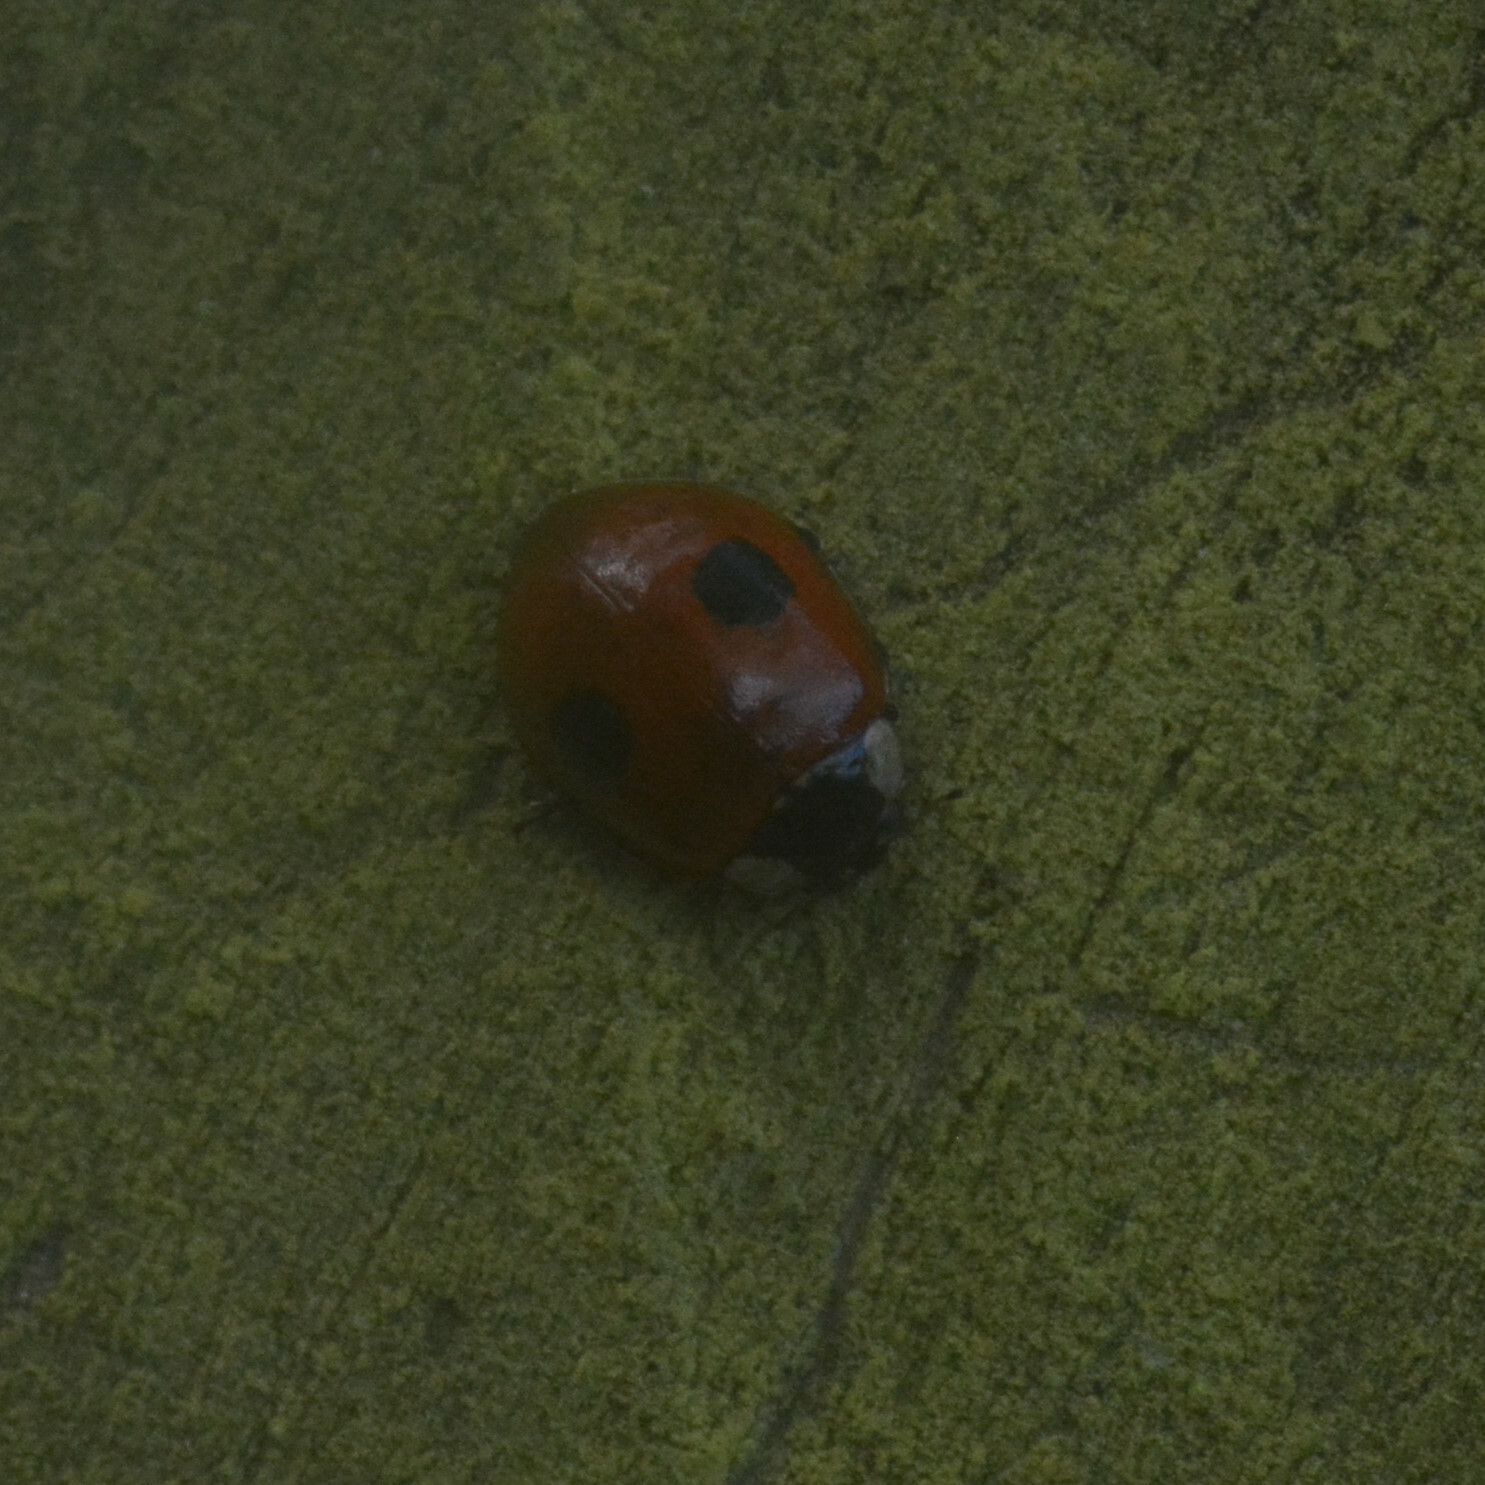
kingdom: Animalia
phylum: Arthropoda
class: Insecta
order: Coleoptera
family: Coccinellidae
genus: Adalia
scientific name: Adalia bipunctata
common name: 2-spot ladybird
